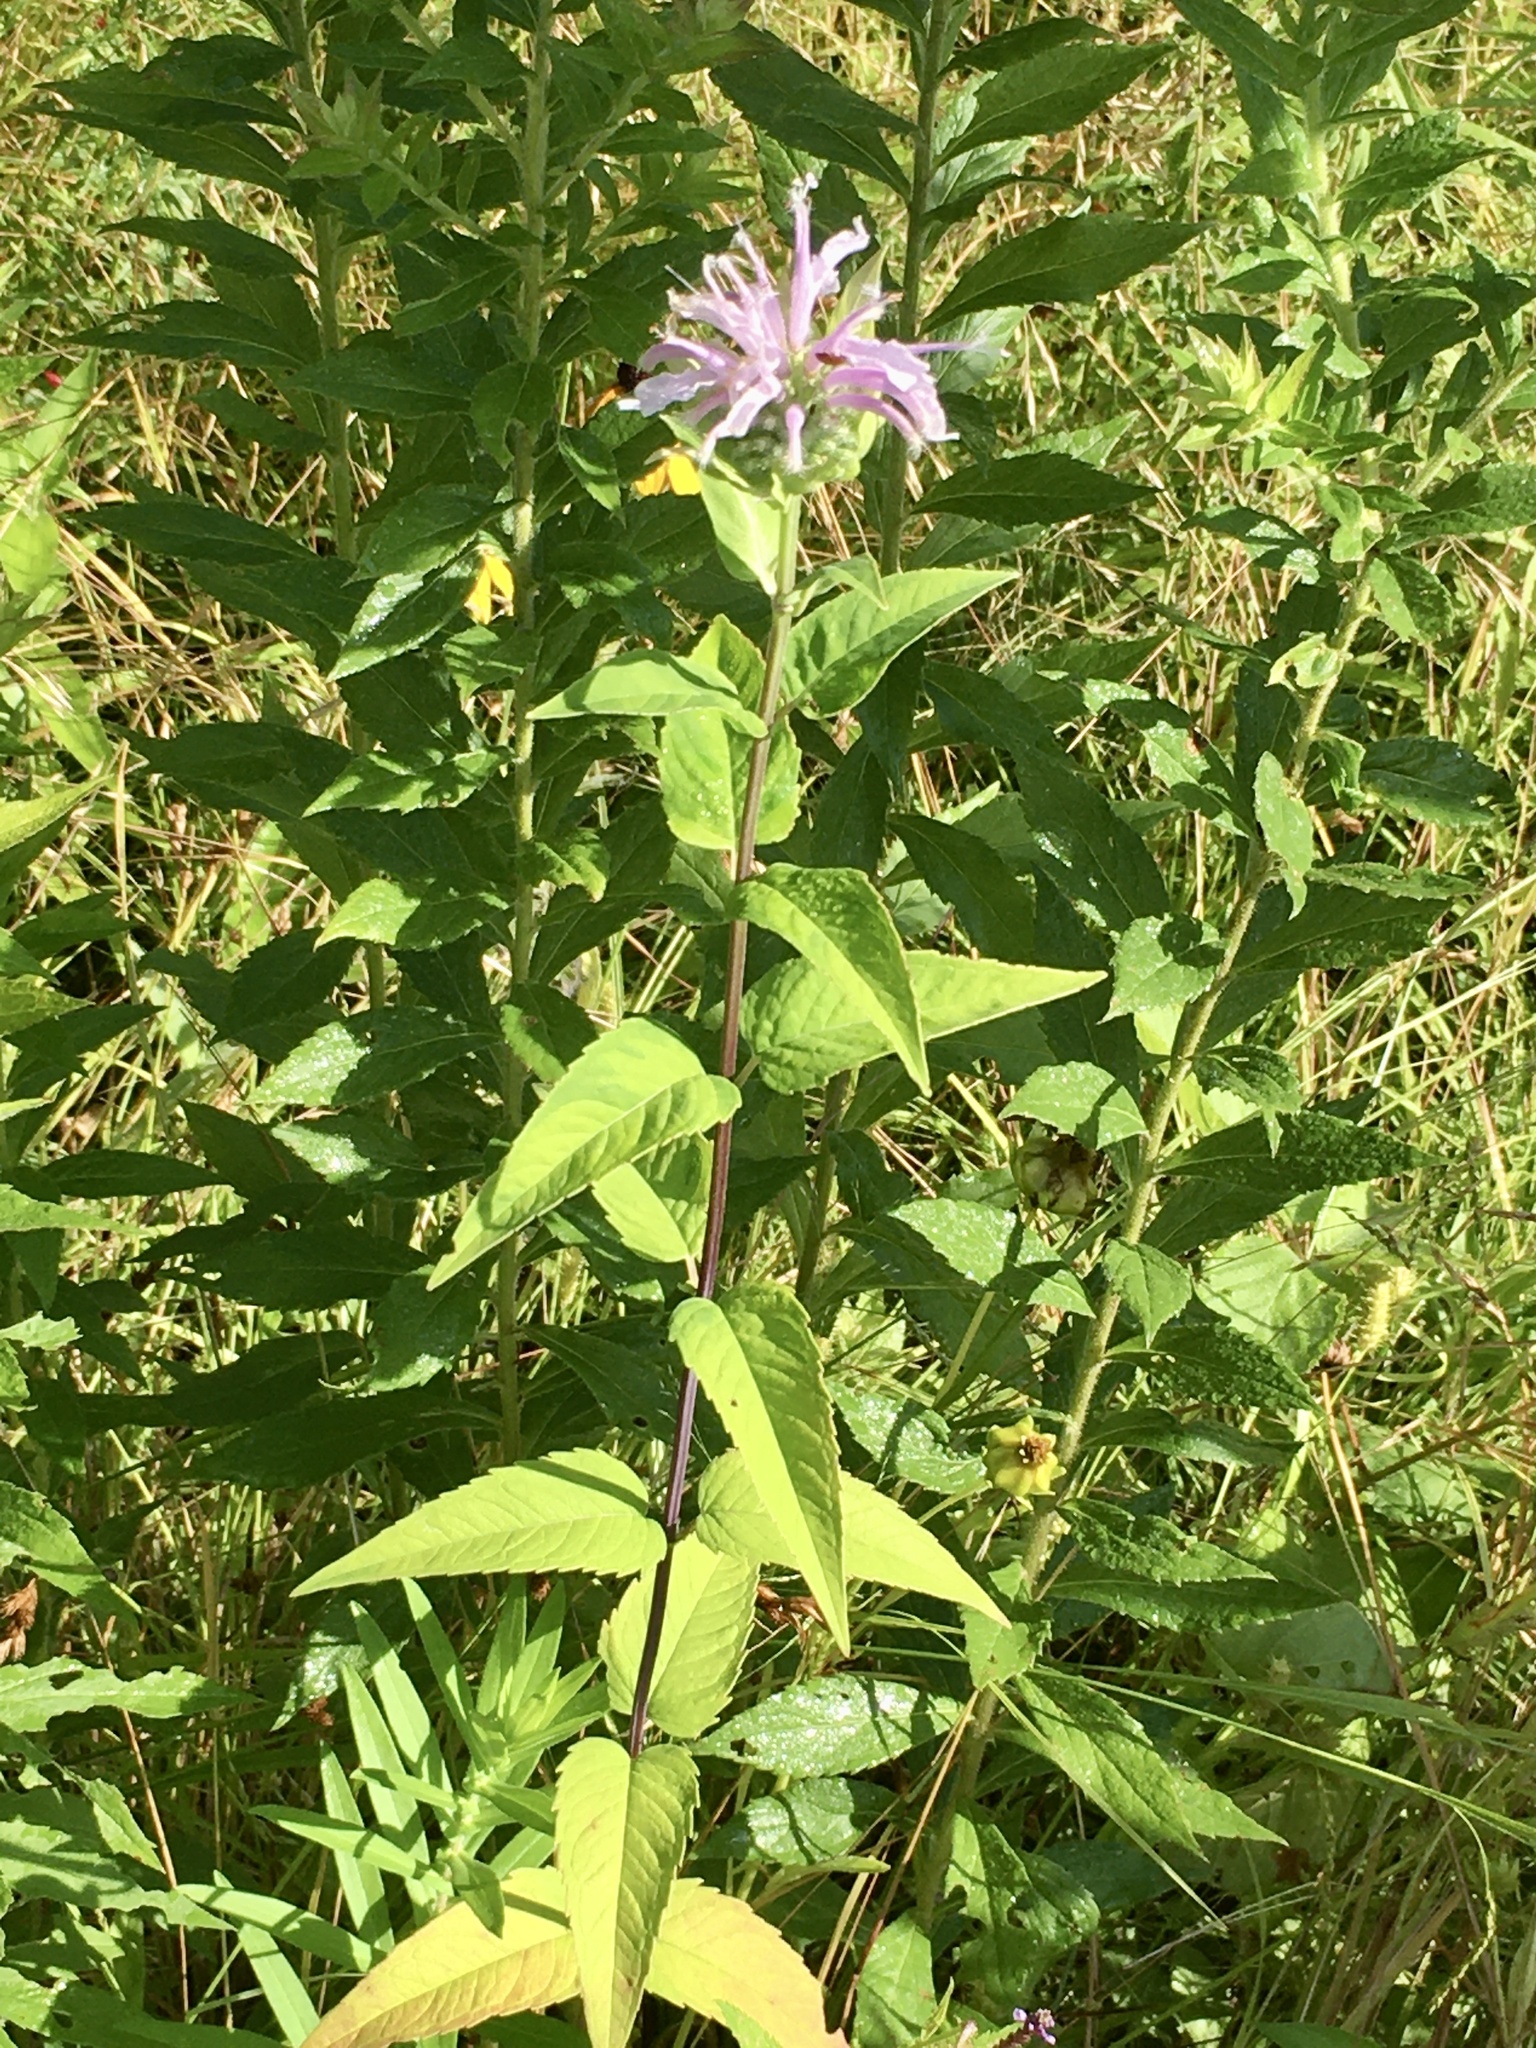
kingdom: Plantae
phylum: Tracheophyta
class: Magnoliopsida
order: Lamiales
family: Lamiaceae
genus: Monarda
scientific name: Monarda fistulosa
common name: Purple beebalm
